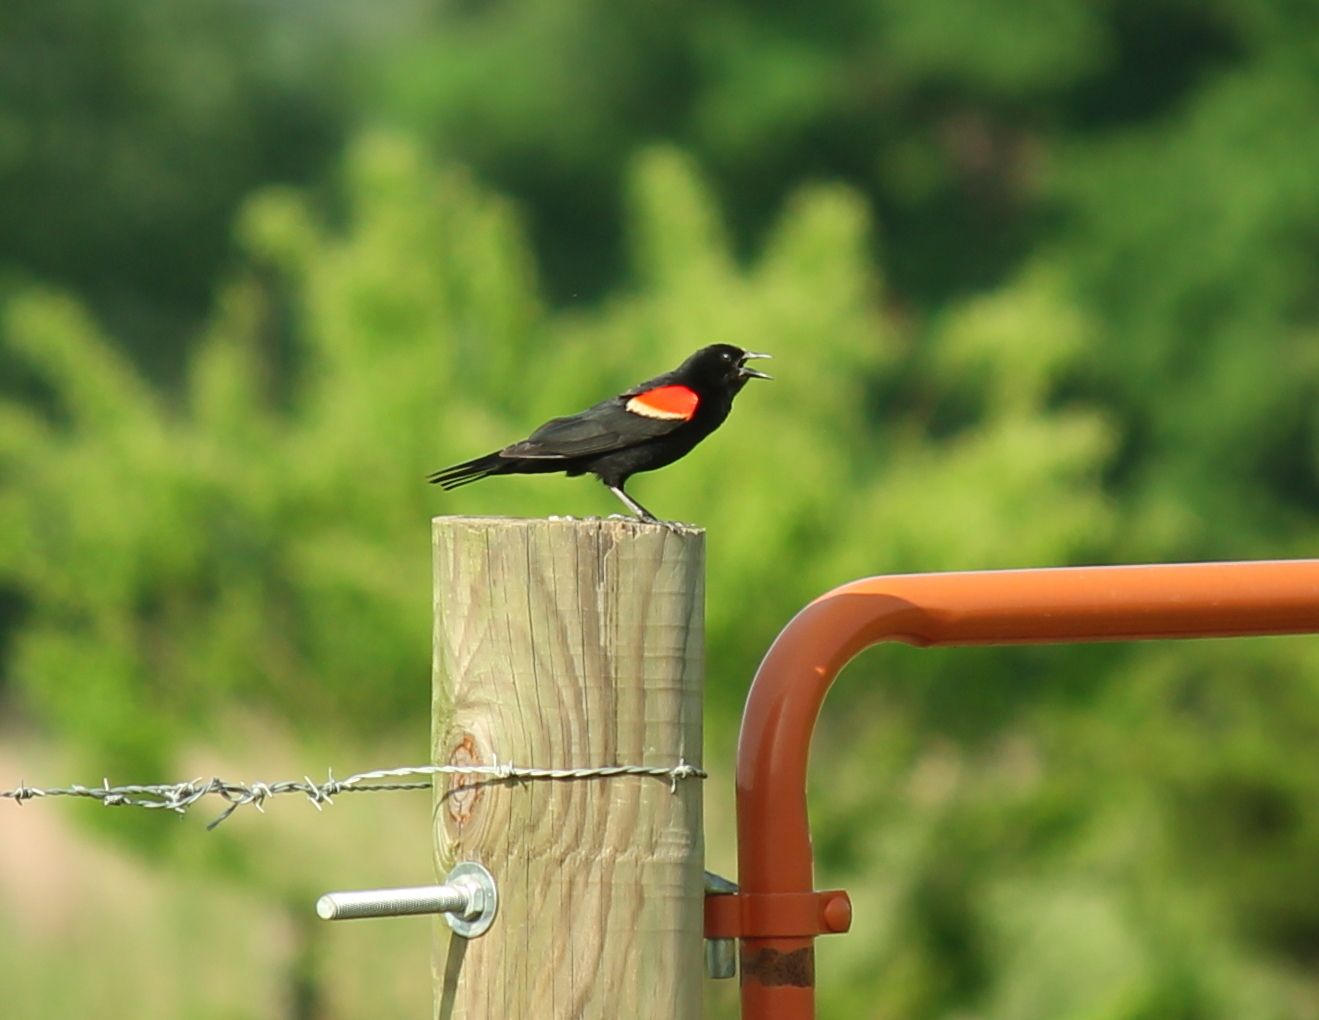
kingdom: Animalia
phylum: Chordata
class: Aves
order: Passeriformes
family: Icteridae
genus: Agelaius
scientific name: Agelaius phoeniceus
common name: Red-winged blackbird
